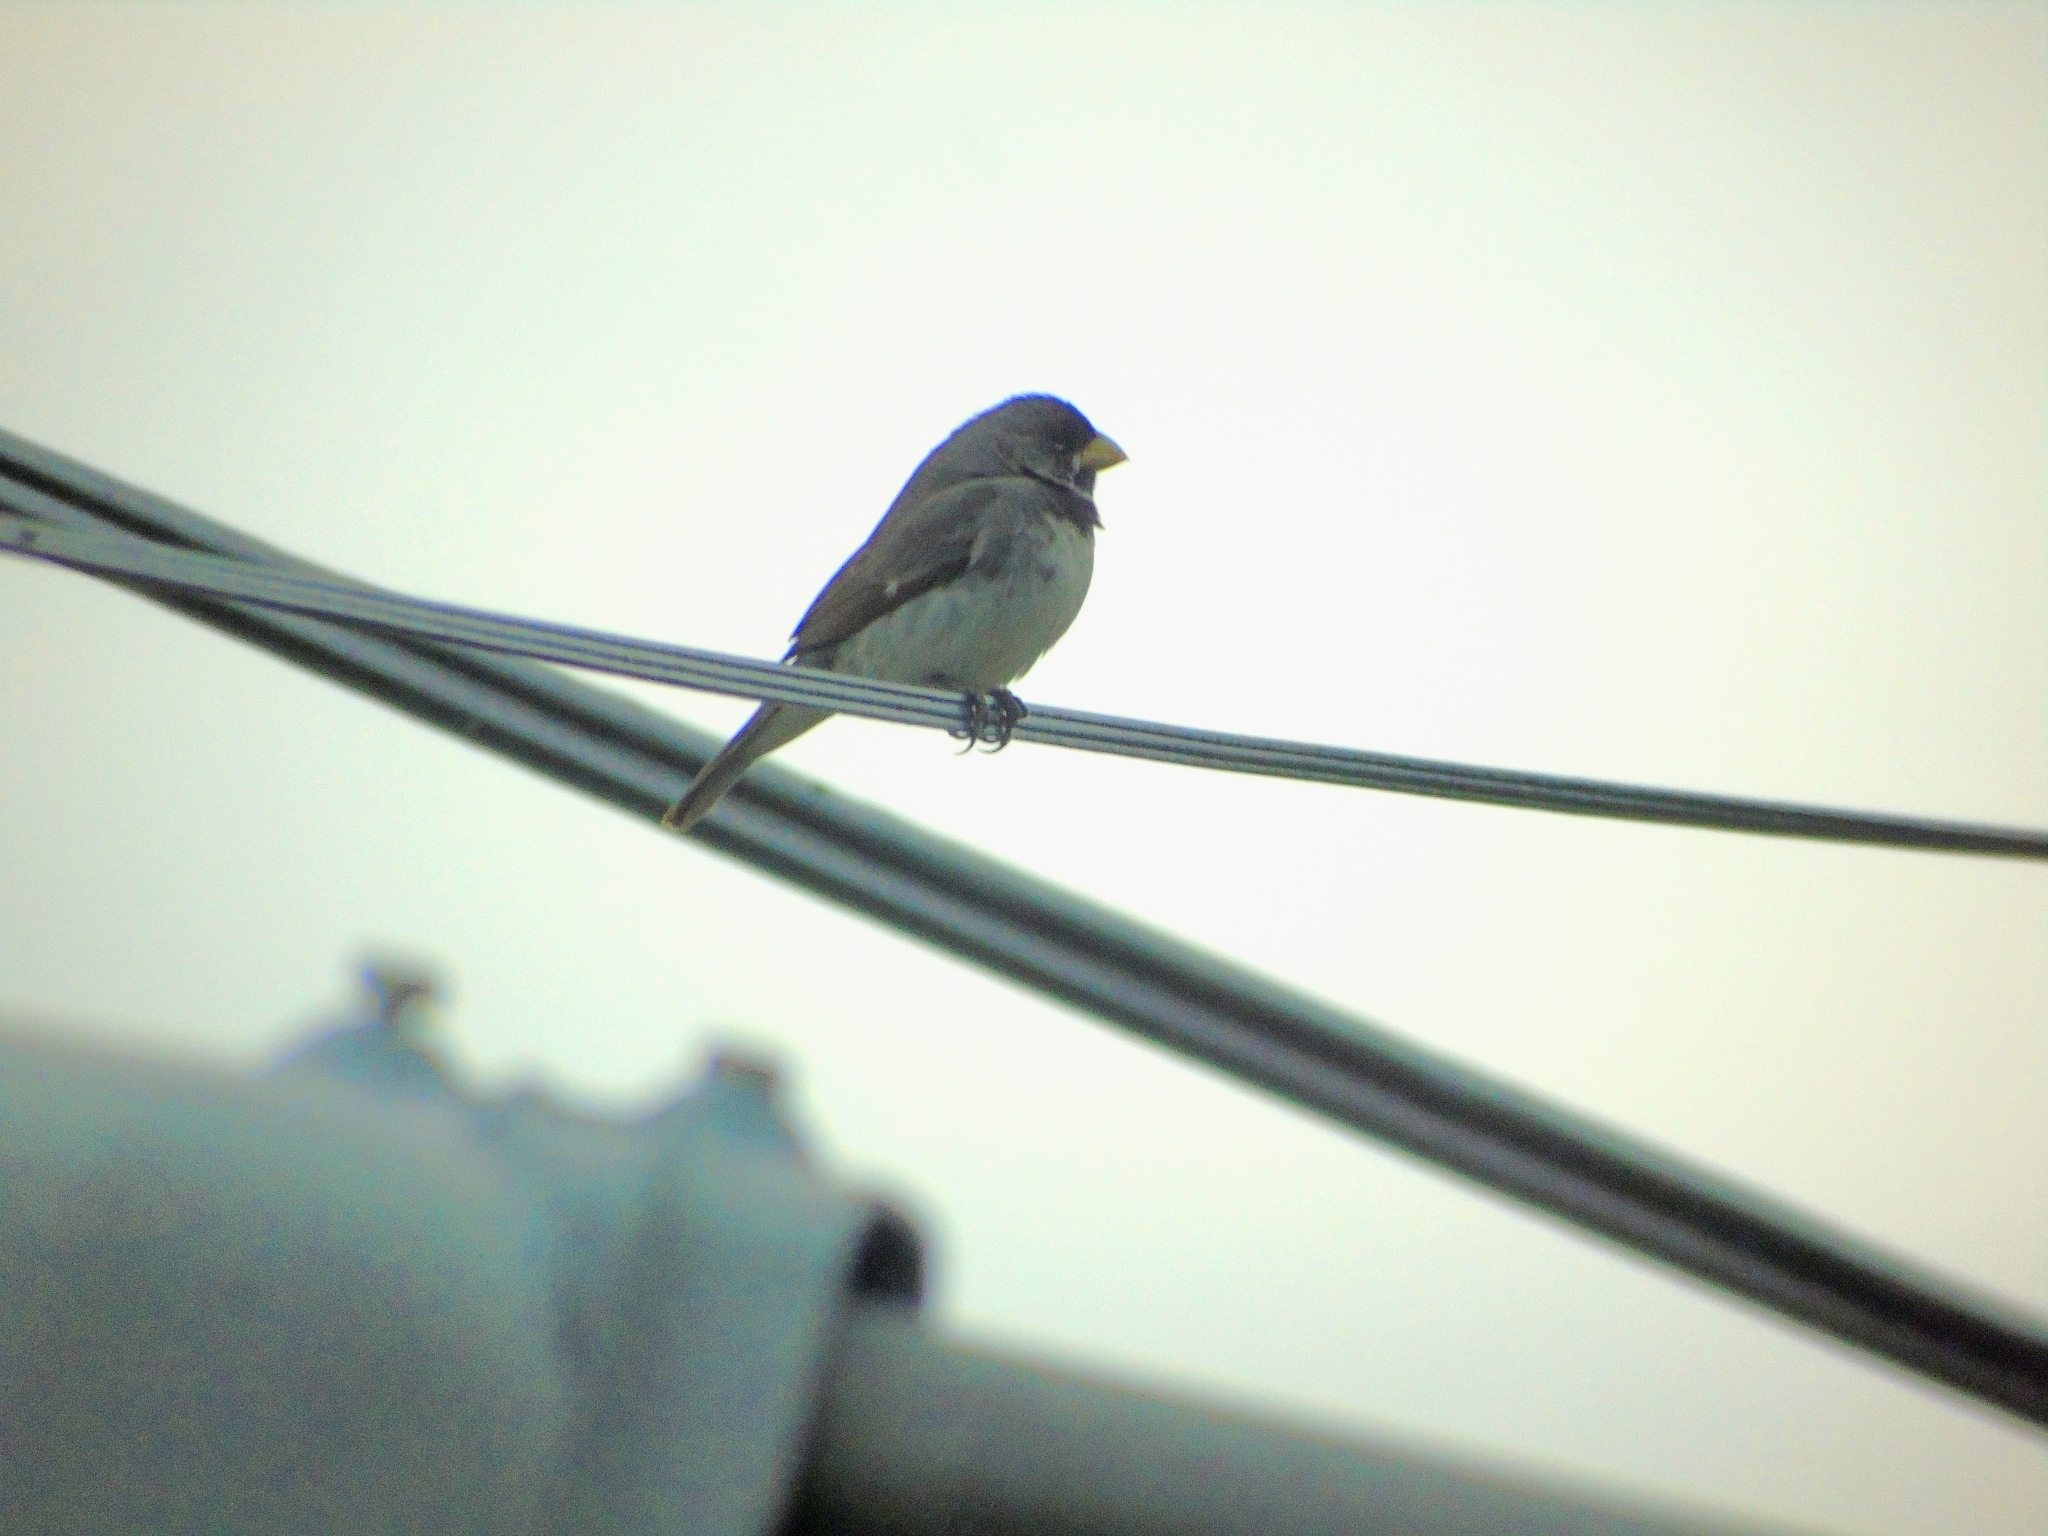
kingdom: Animalia
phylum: Chordata
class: Aves
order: Passeriformes
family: Thraupidae
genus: Sporophila
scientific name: Sporophila caerulescens
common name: Double-collared seedeater
